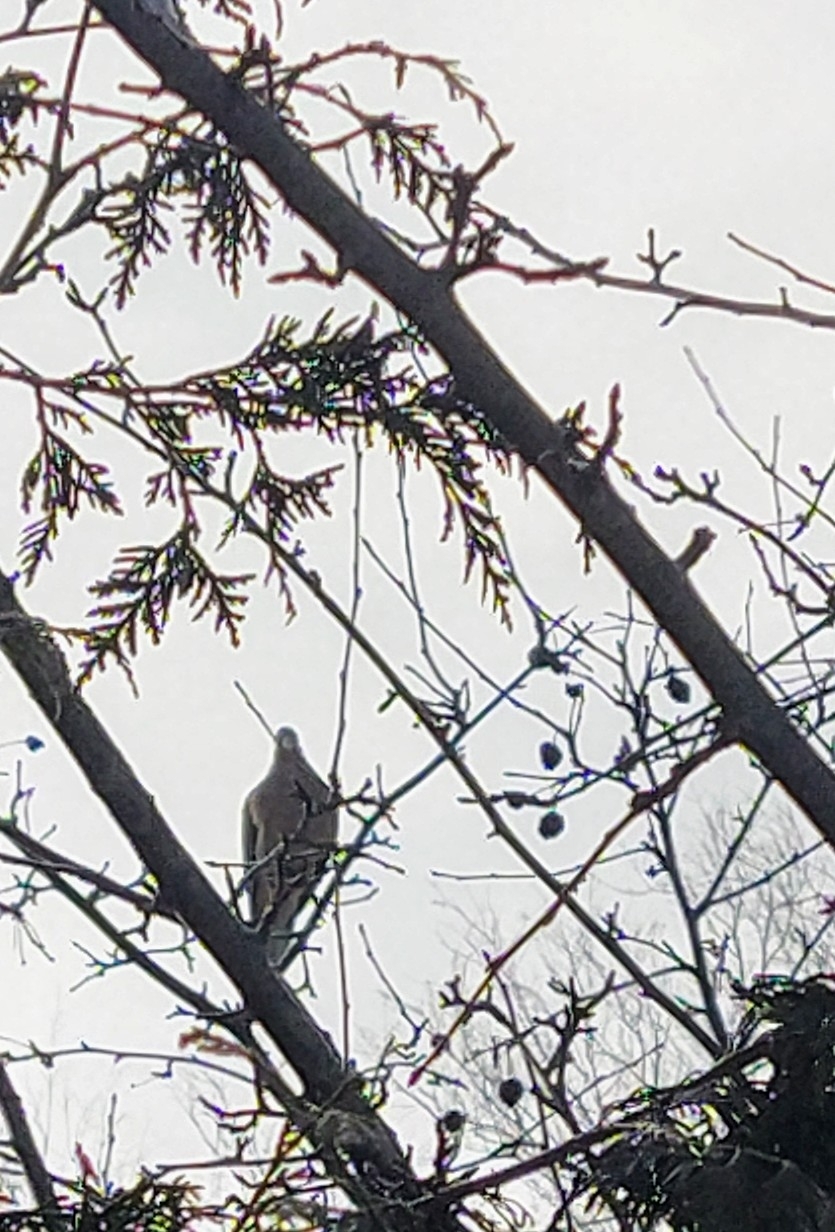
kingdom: Animalia
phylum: Chordata
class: Aves
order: Columbiformes
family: Columbidae
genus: Zenaida
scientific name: Zenaida macroura
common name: Mourning dove
